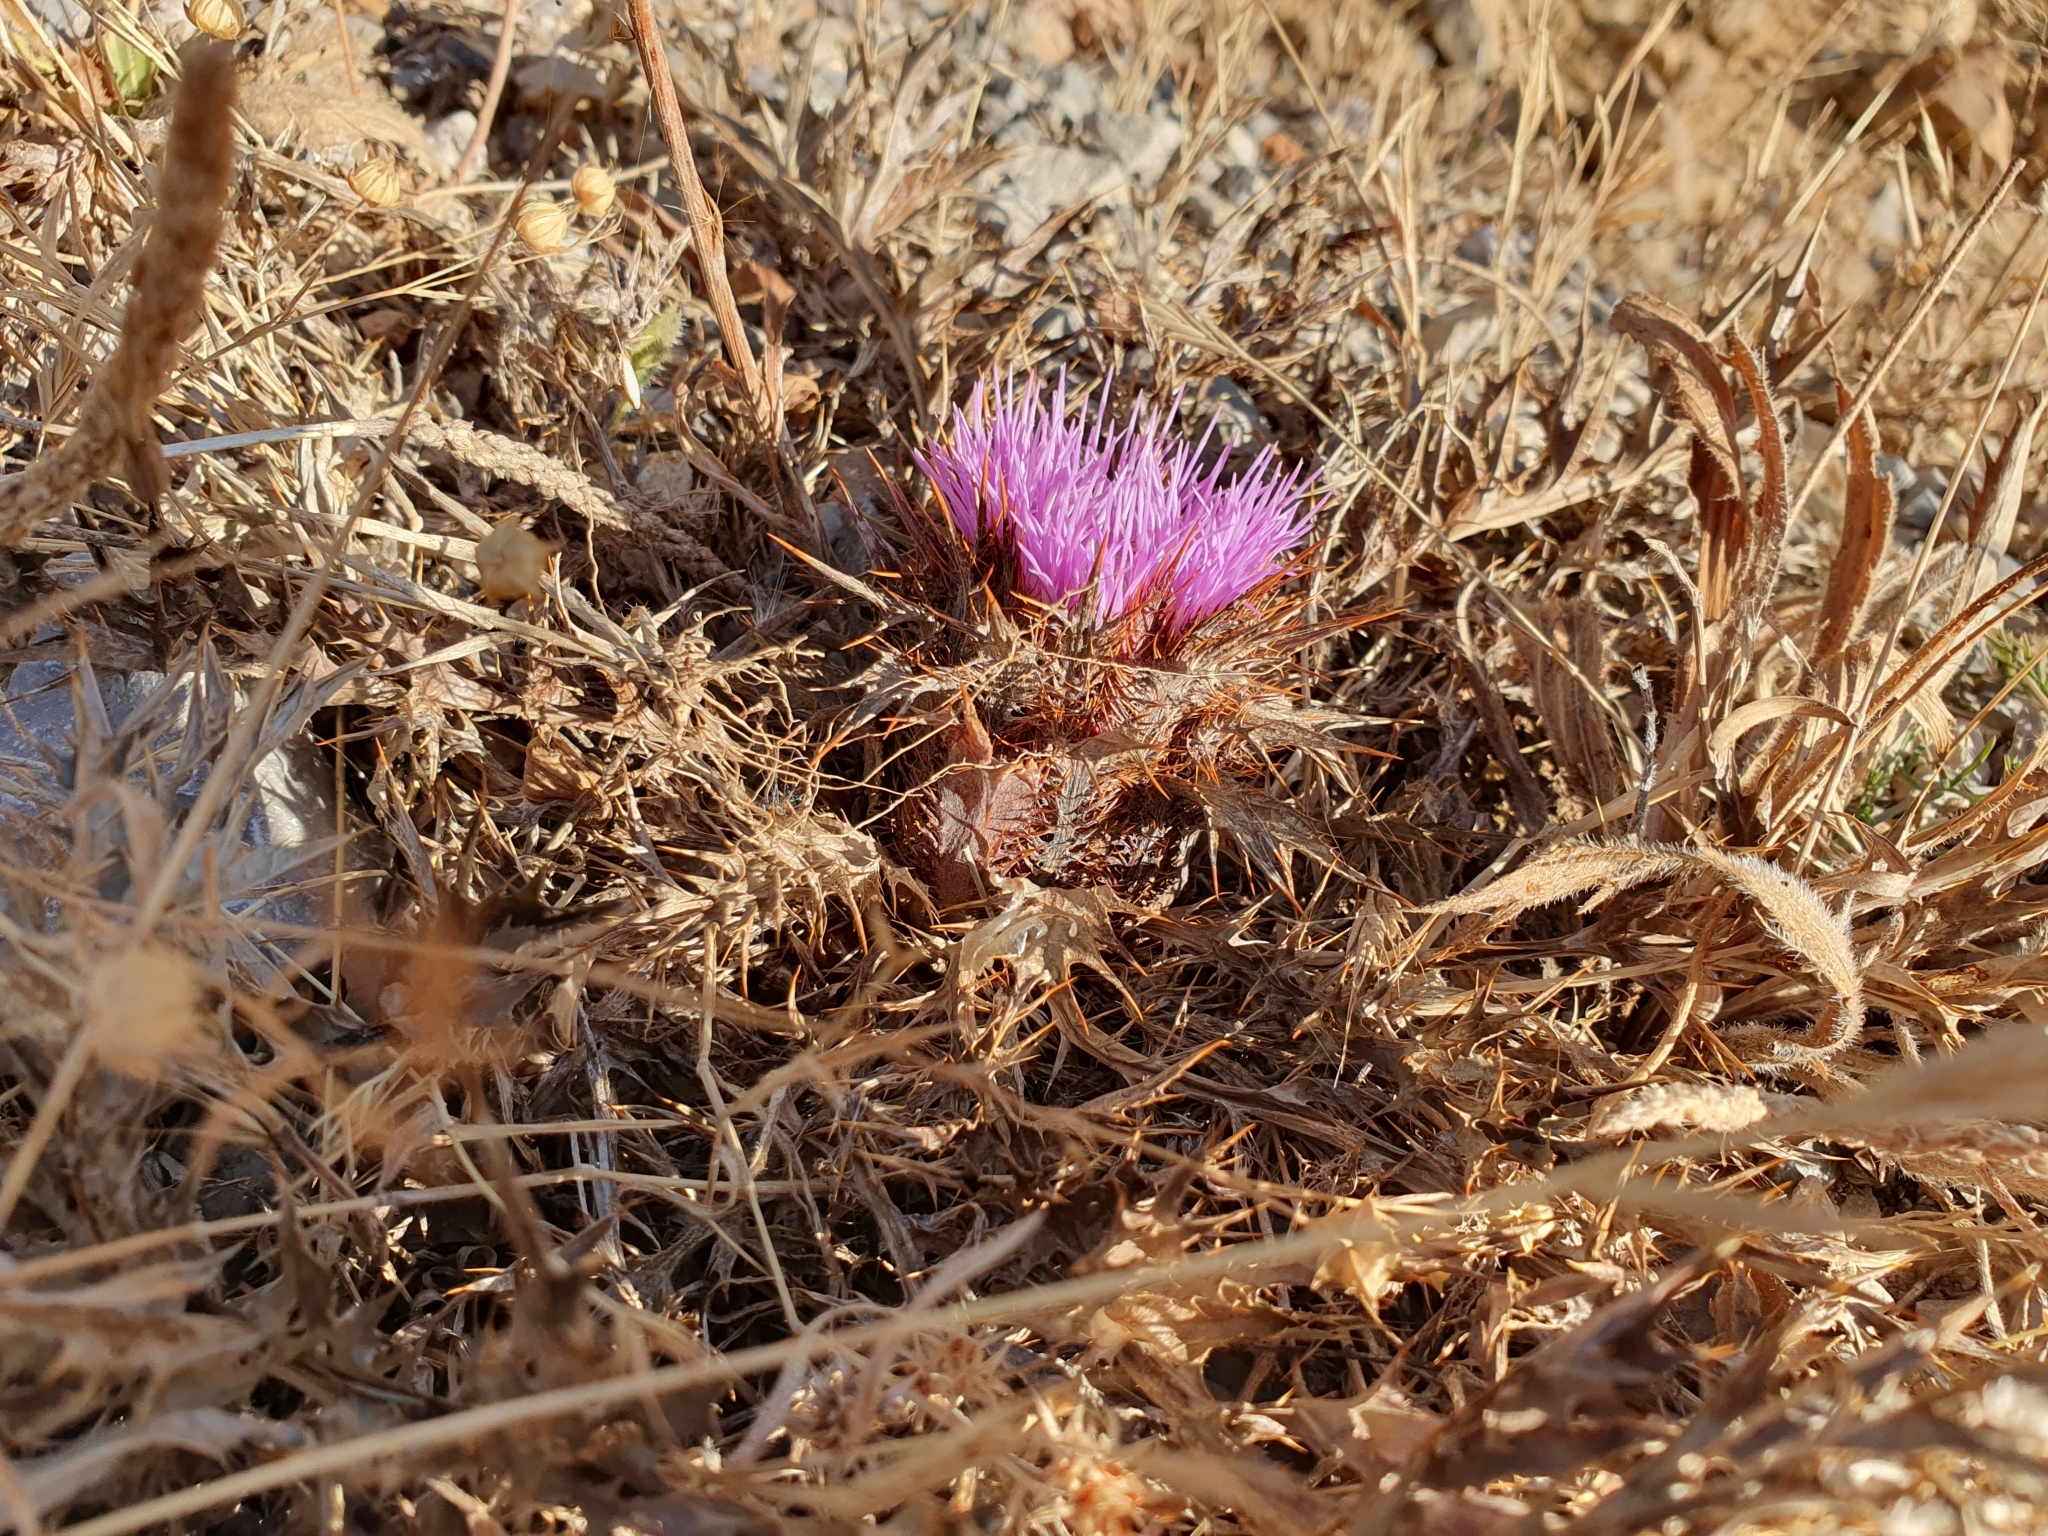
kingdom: Plantae
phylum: Tracheophyta
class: Magnoliopsida
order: Asterales
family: Asteraceae
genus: Chamaeleon
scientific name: Chamaeleon gummifer
